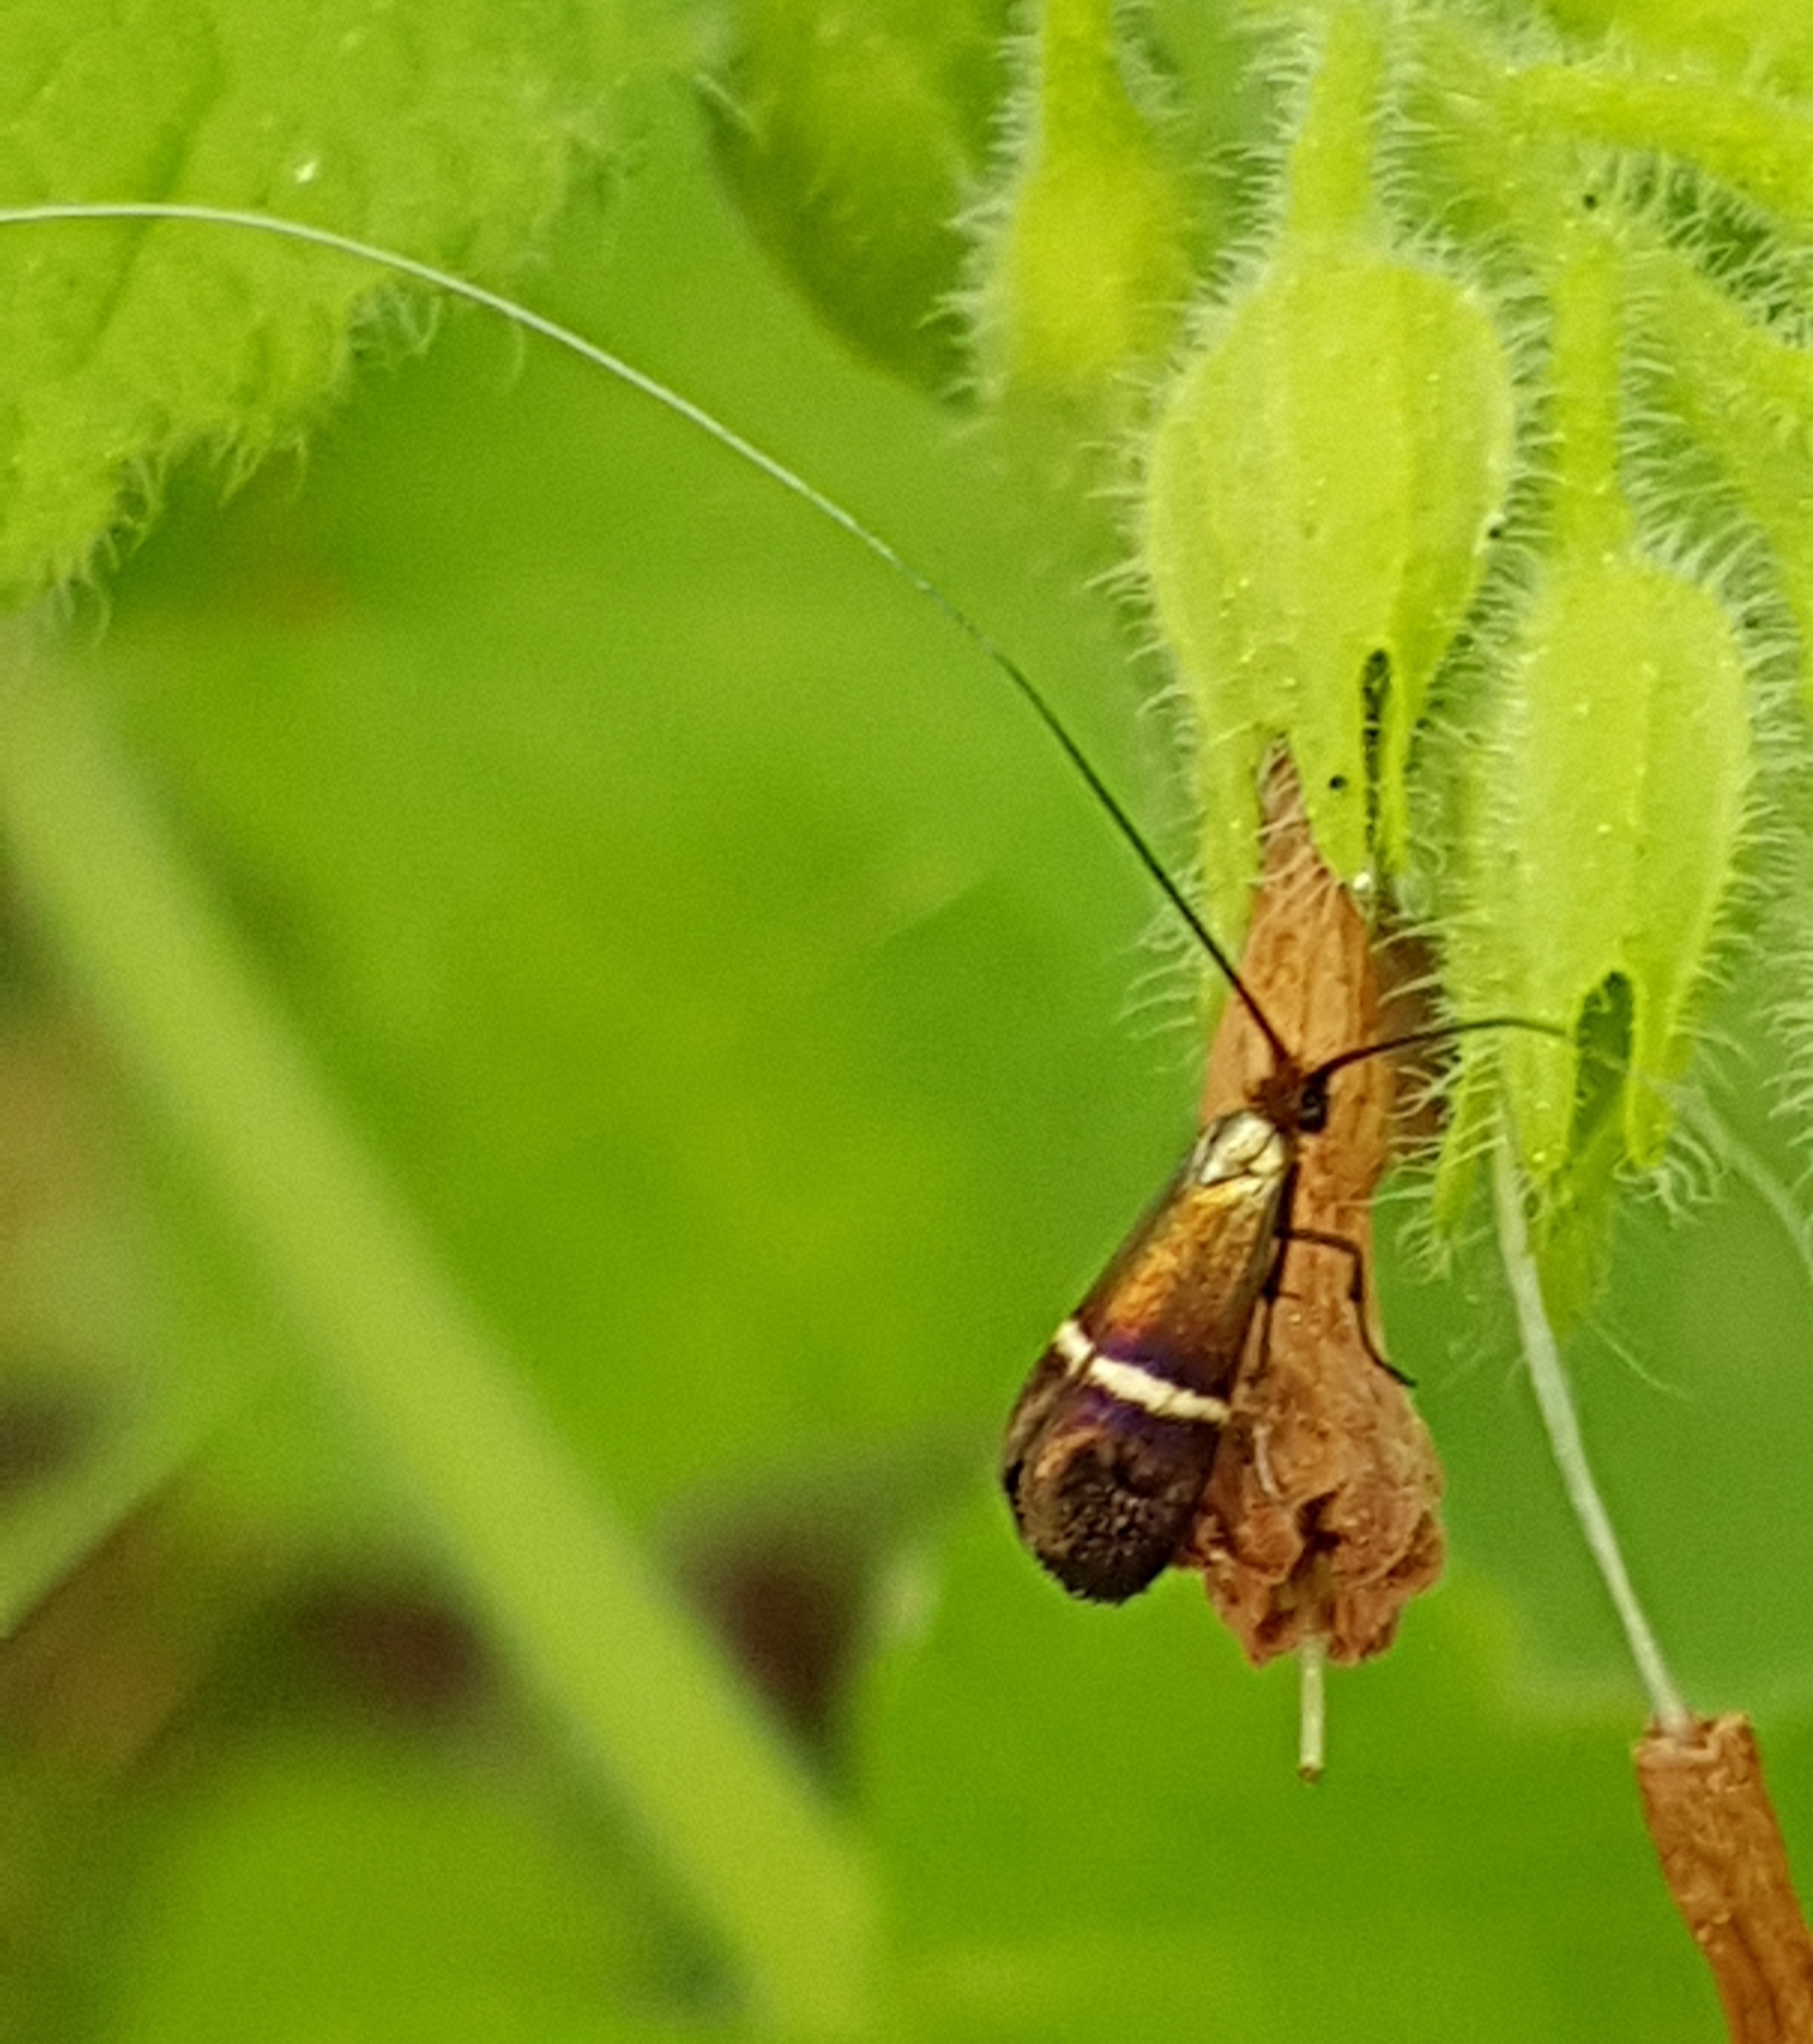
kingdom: Animalia
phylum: Arthropoda
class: Insecta
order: Lepidoptera
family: Adelidae
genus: Adela
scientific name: Adela australis
